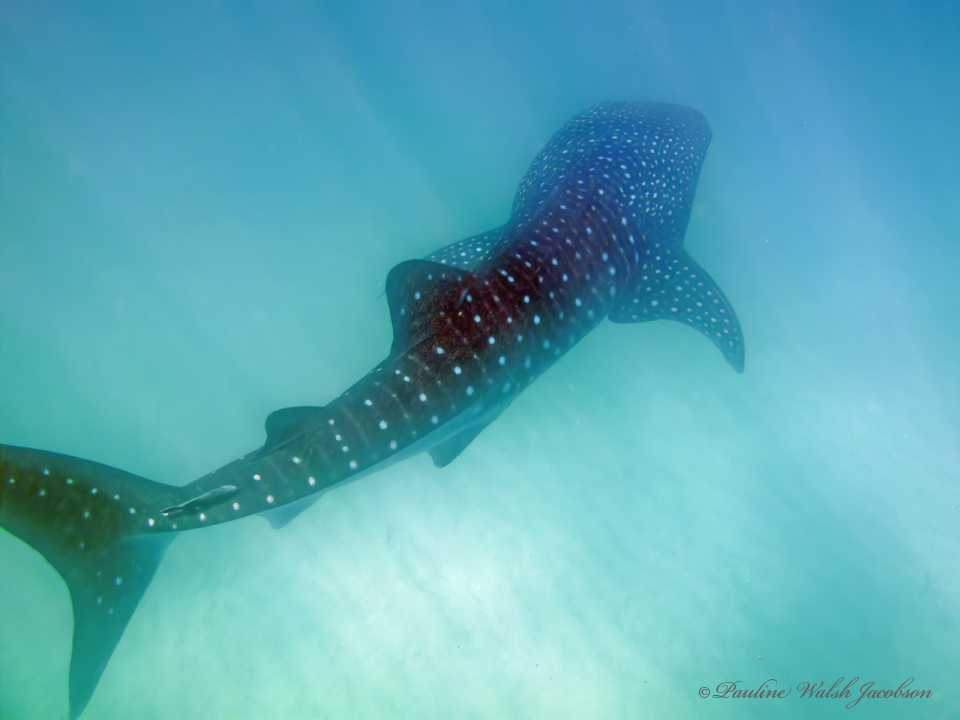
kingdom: Animalia
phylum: Chordata
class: Elasmobranchii
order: Orectolobiformes
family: Rhincodontidae
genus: Rhincodon
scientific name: Rhincodon typus
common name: Whale shark
